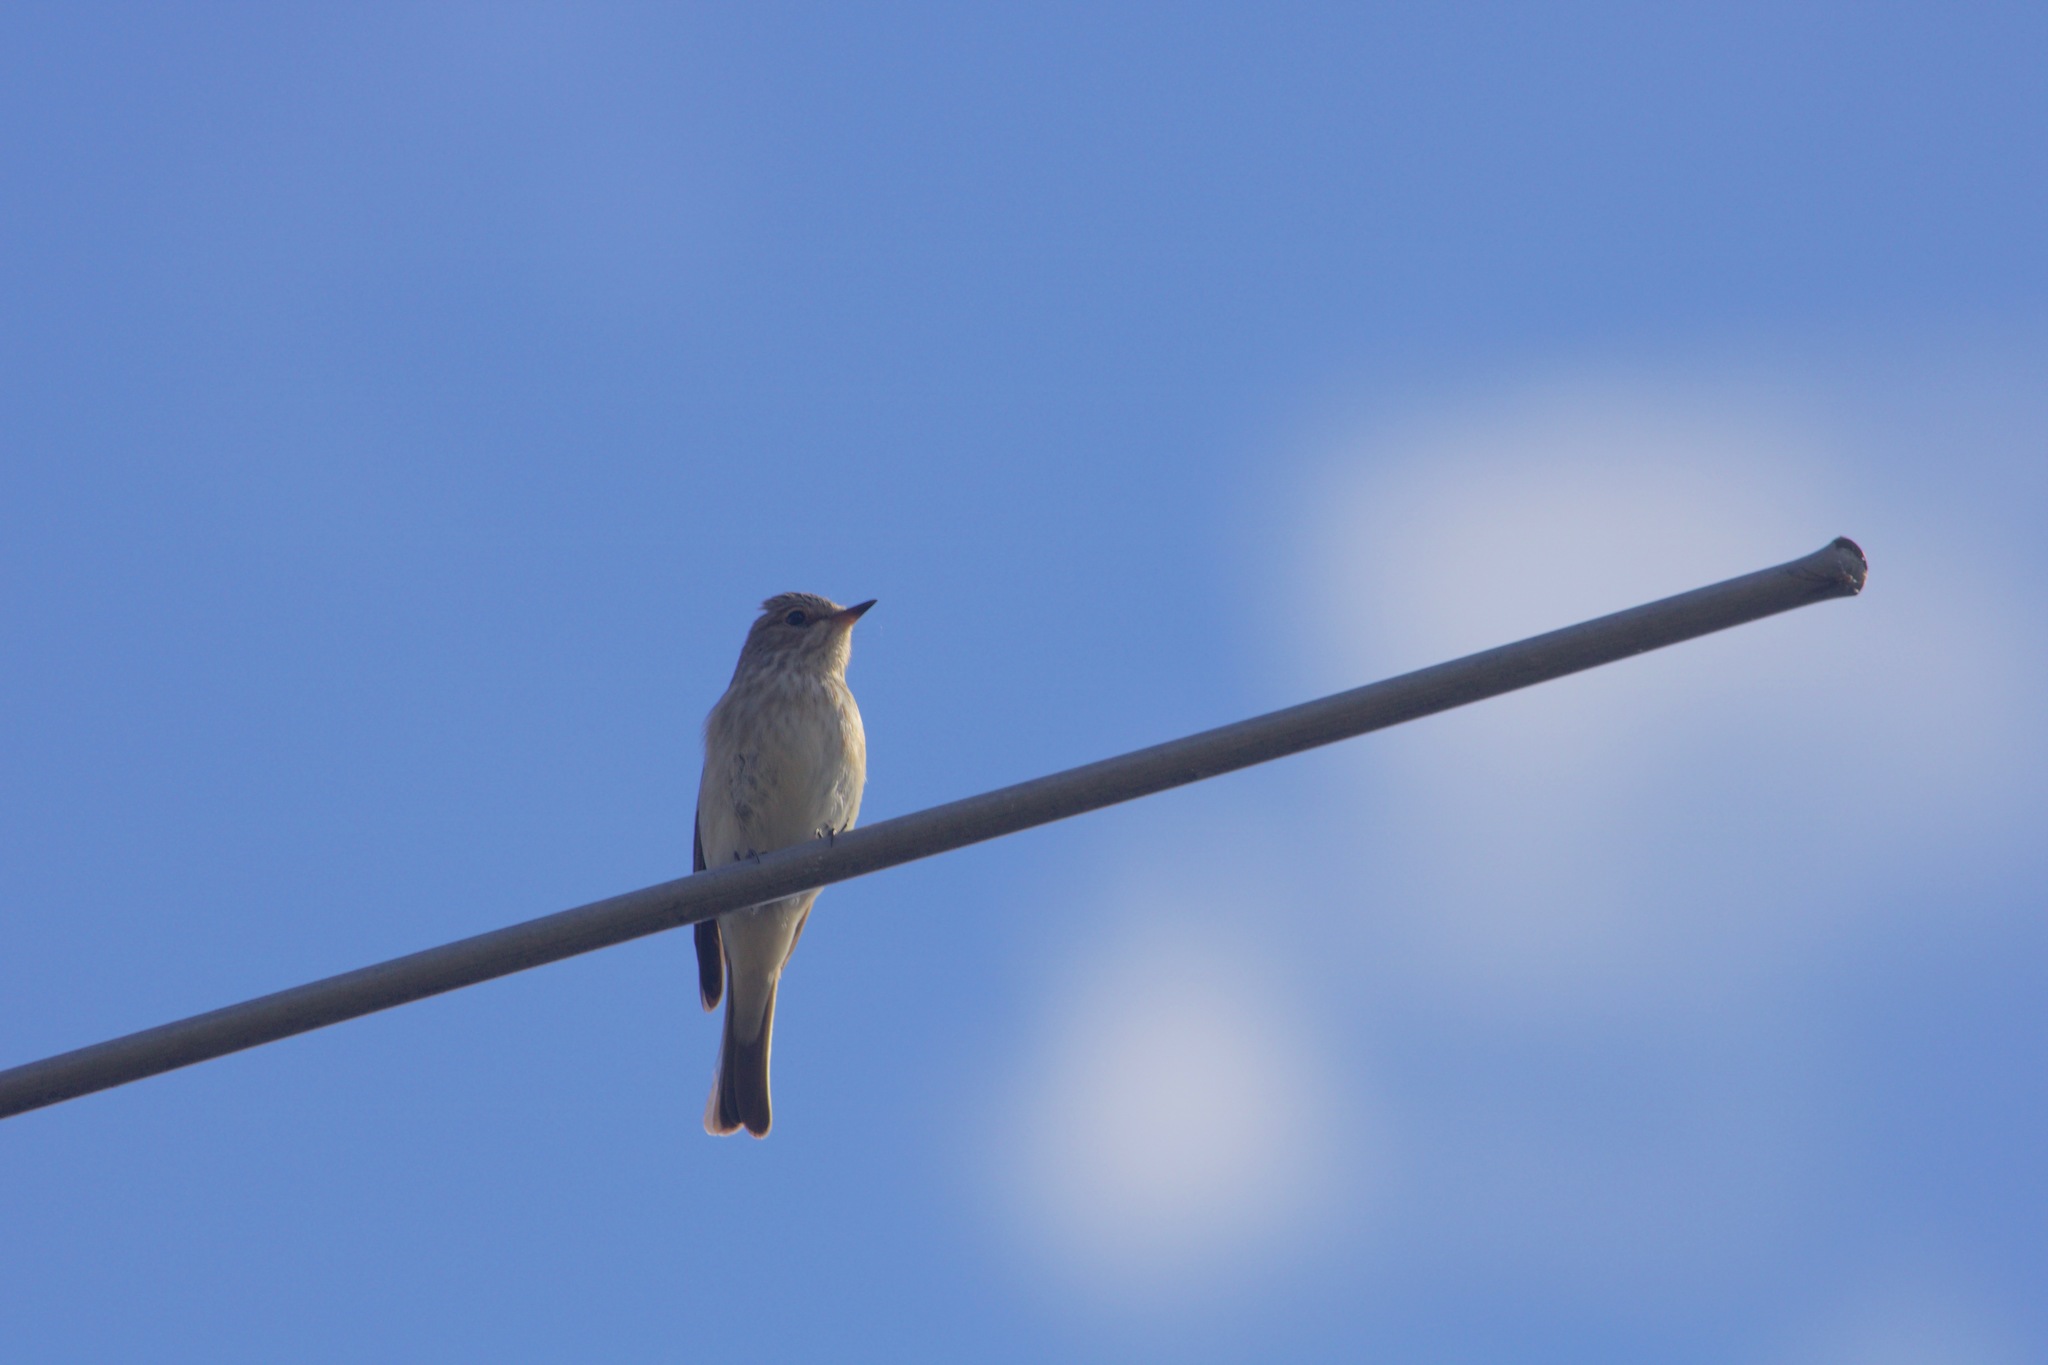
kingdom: Animalia
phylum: Chordata
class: Aves
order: Passeriformes
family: Muscicapidae
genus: Muscicapa
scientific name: Muscicapa striata
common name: Spotted flycatcher
